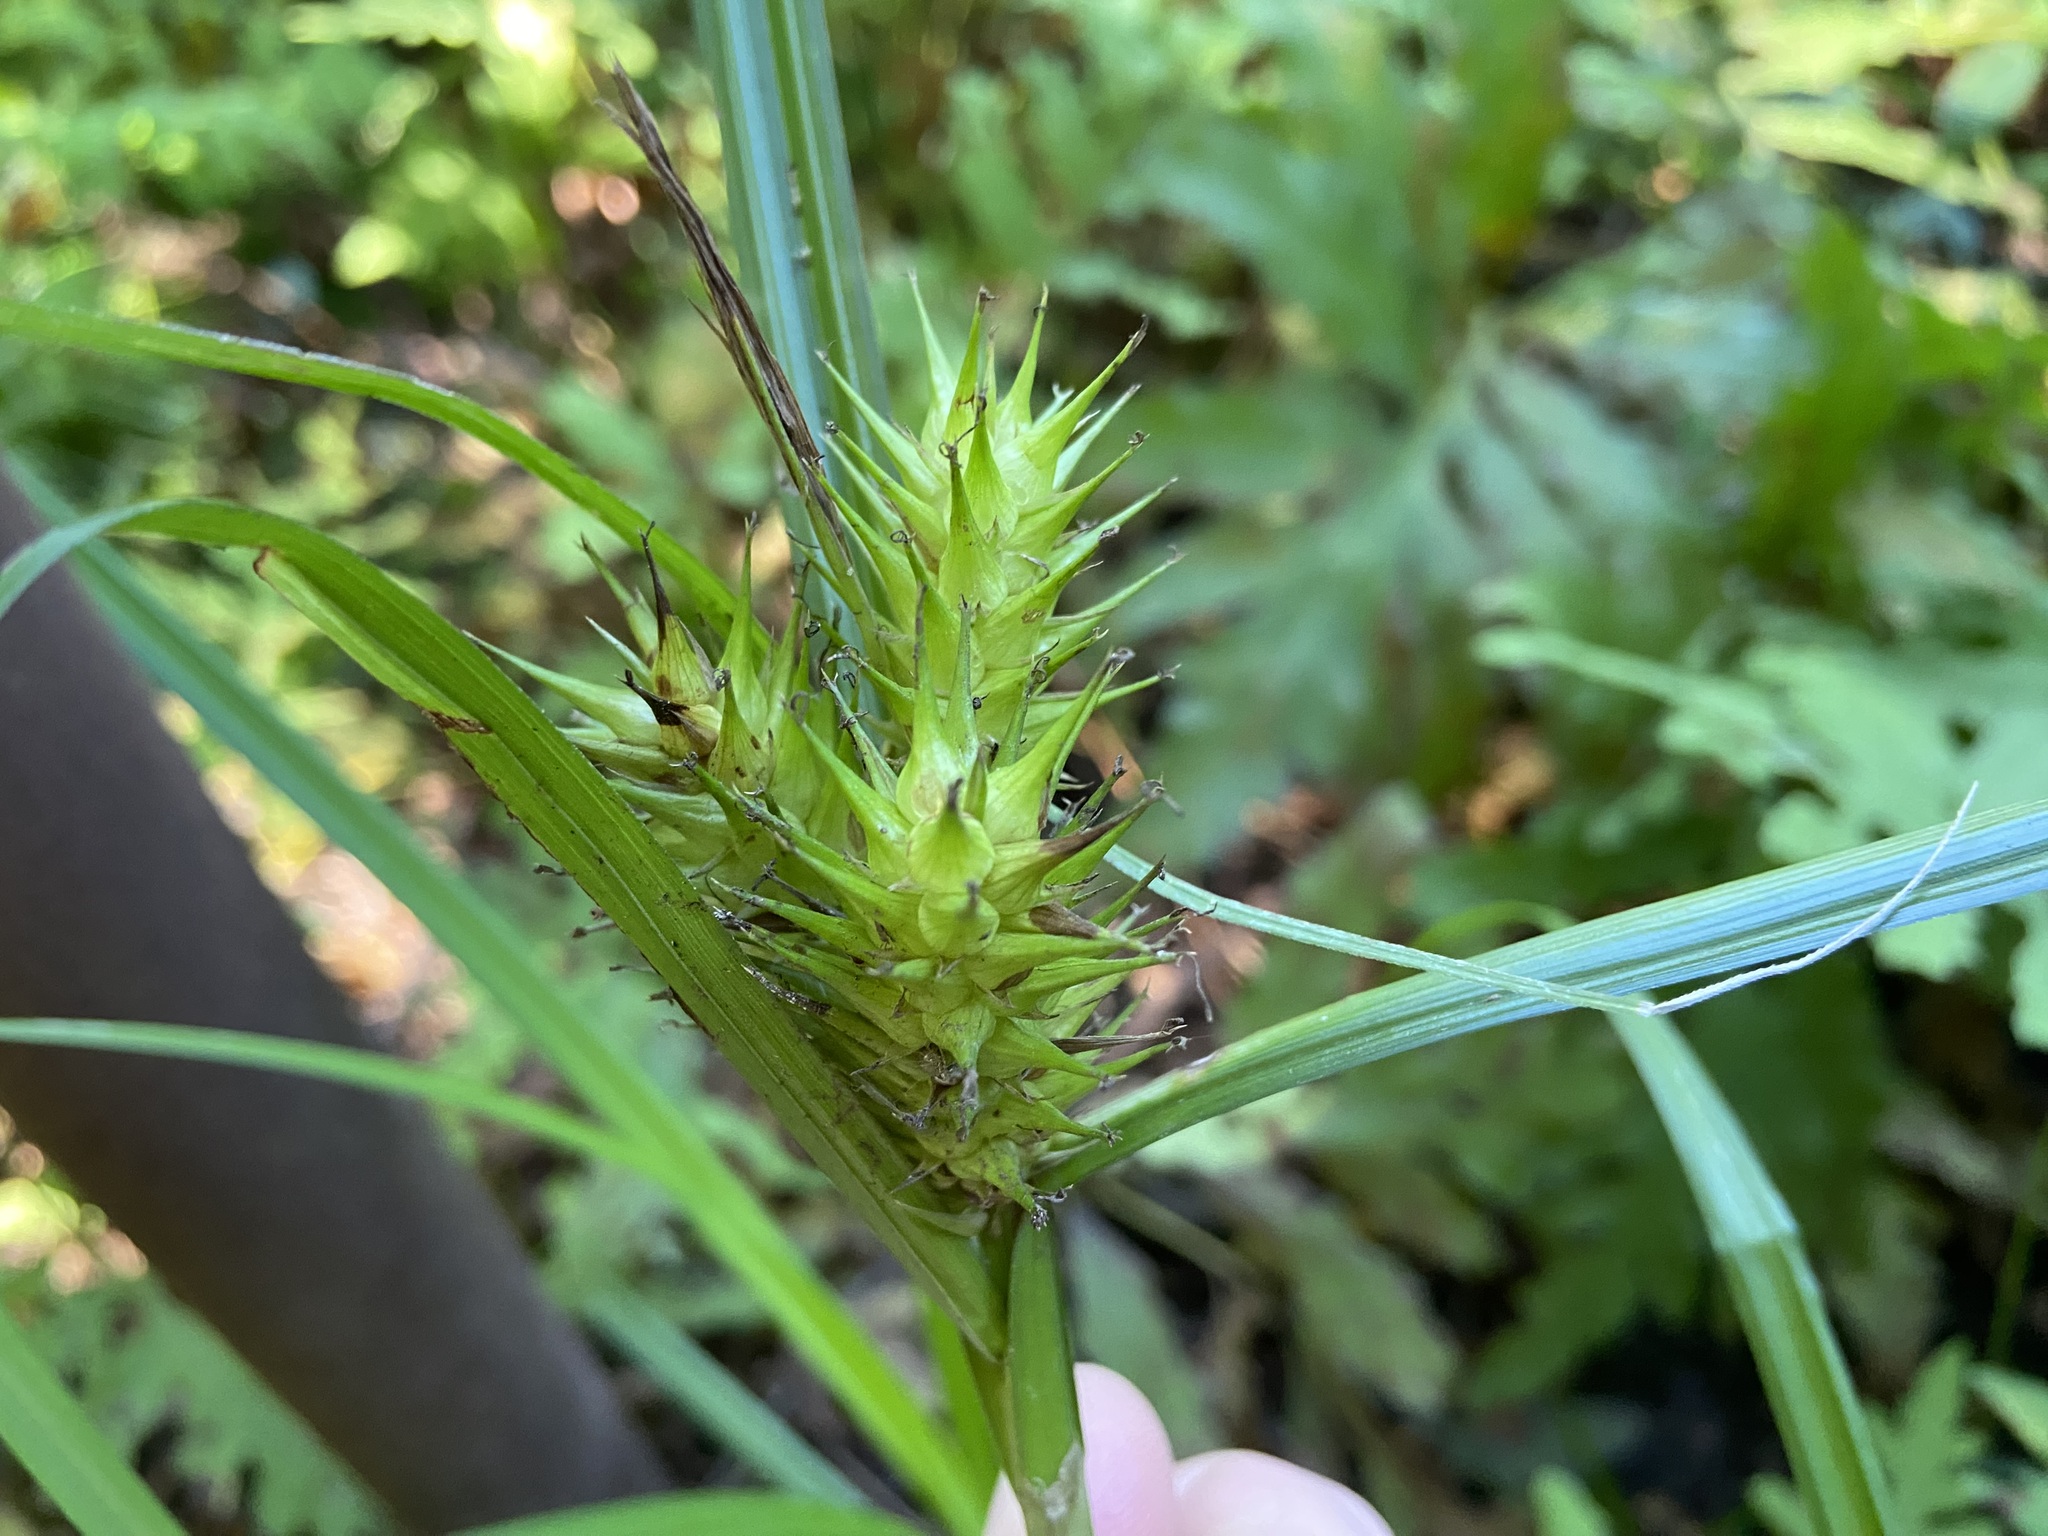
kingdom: Plantae
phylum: Tracheophyta
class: Liliopsida
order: Poales
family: Cyperaceae
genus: Carex
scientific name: Carex lupulina
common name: Hop sedge
